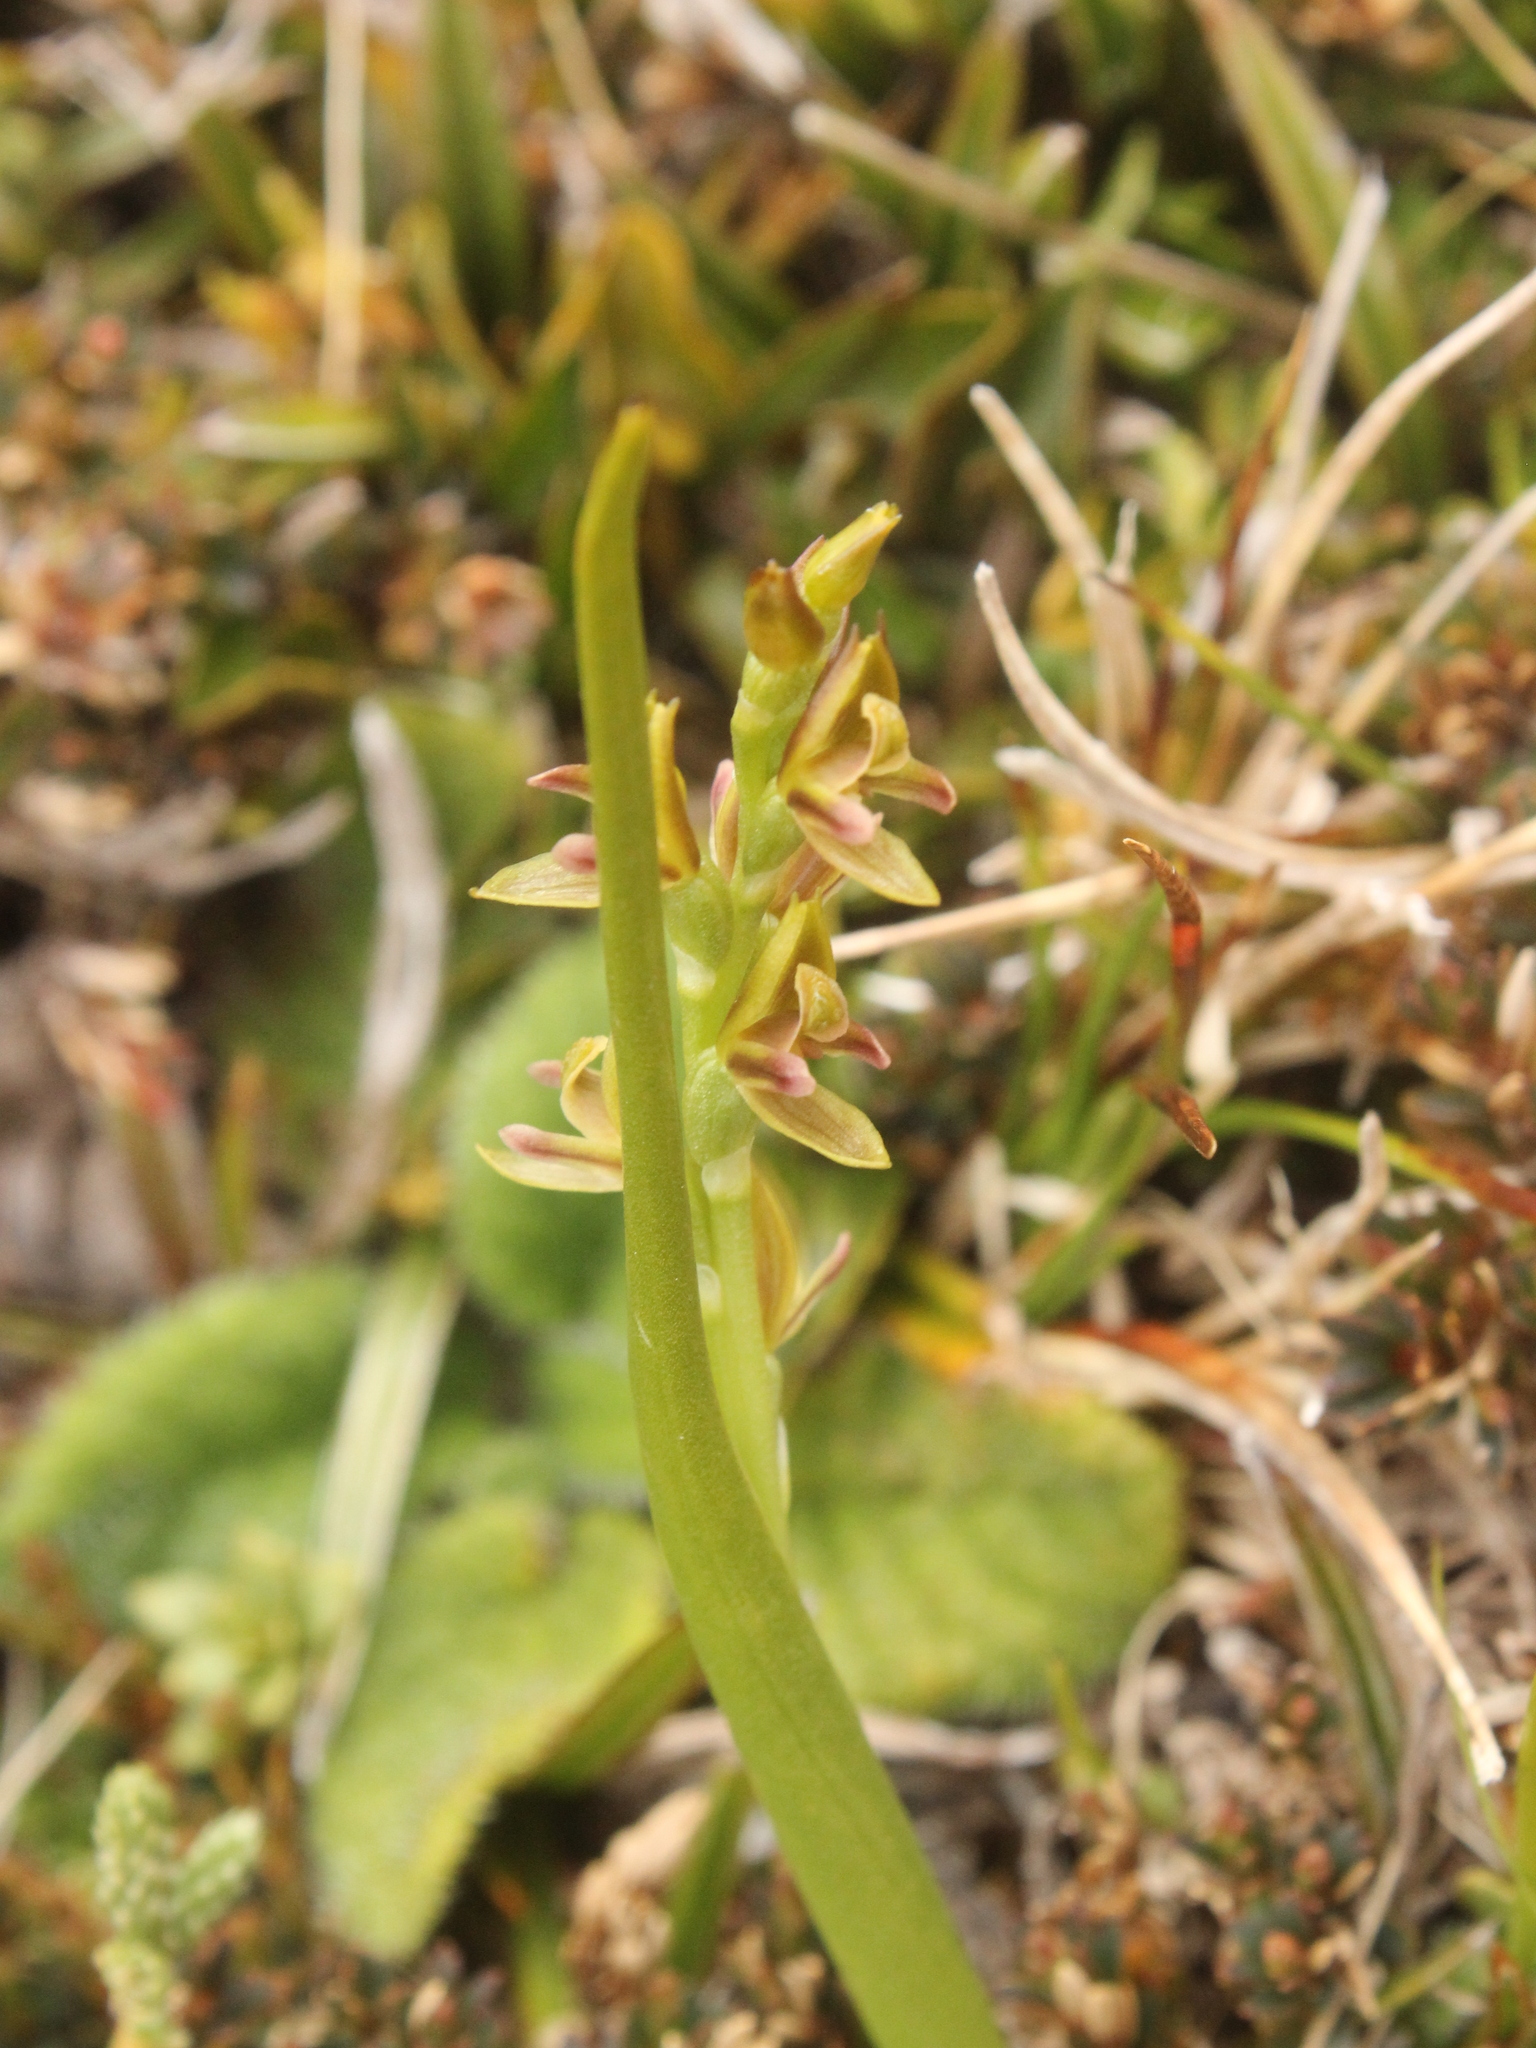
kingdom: Plantae
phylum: Tracheophyta
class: Liliopsida
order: Asparagales
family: Orchidaceae
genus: Prasophyllum
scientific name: Prasophyllum colensoi
